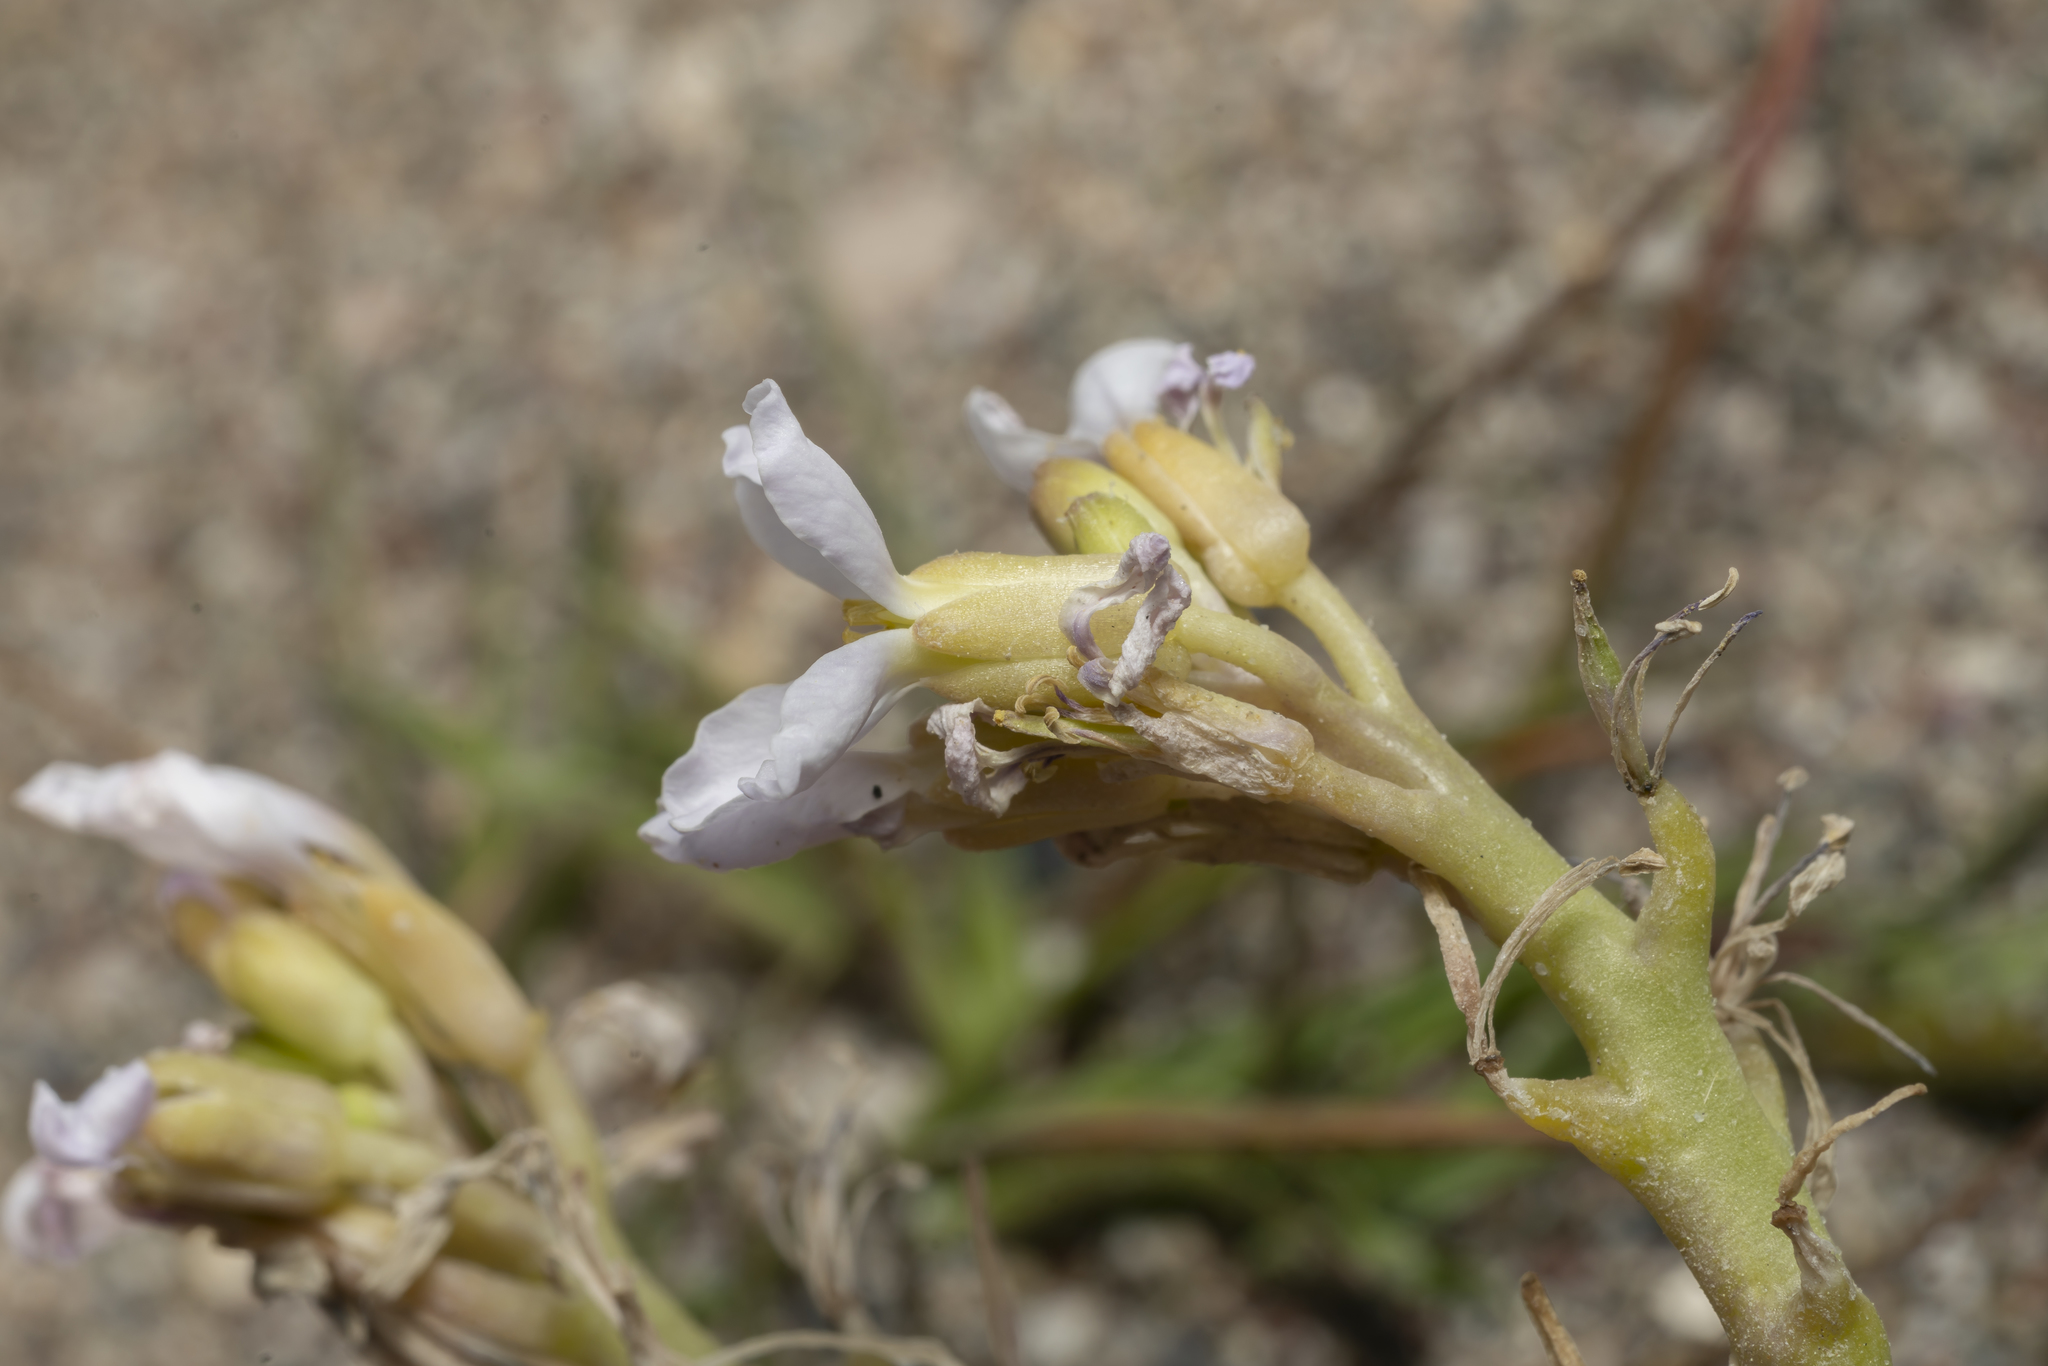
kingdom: Plantae
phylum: Tracheophyta
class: Magnoliopsida
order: Brassicales
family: Brassicaceae
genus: Cakile
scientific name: Cakile maritima
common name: Sea rocket
